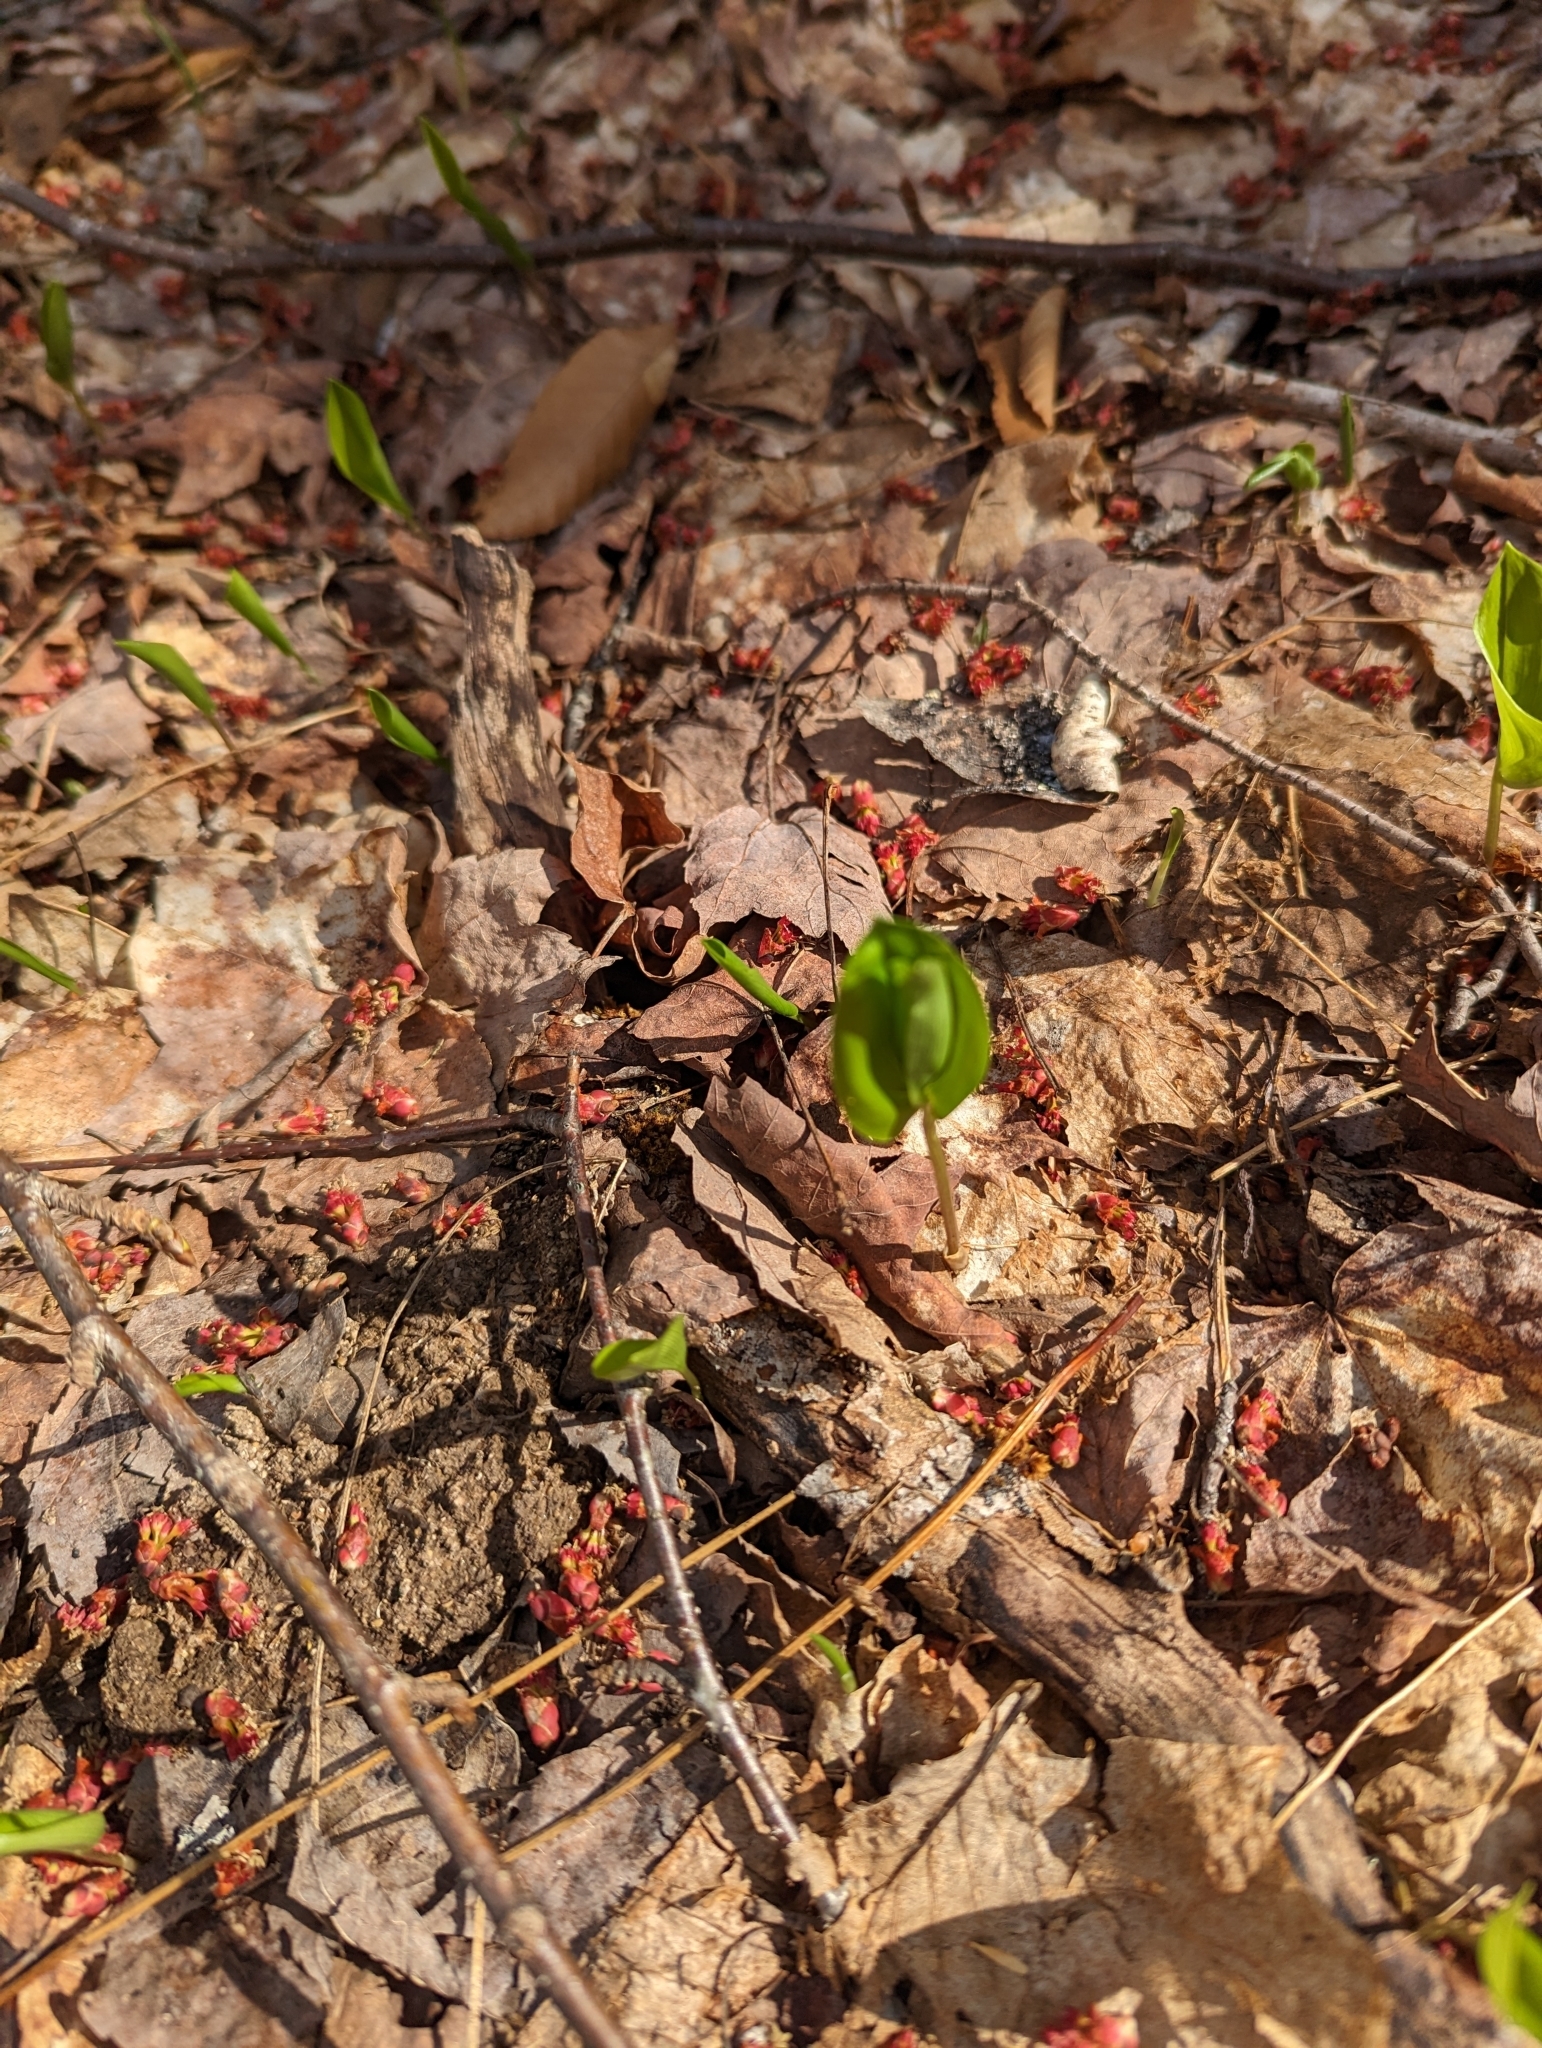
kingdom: Plantae
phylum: Tracheophyta
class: Liliopsida
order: Asparagales
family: Asparagaceae
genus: Maianthemum
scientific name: Maianthemum canadense
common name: False lily-of-the-valley
